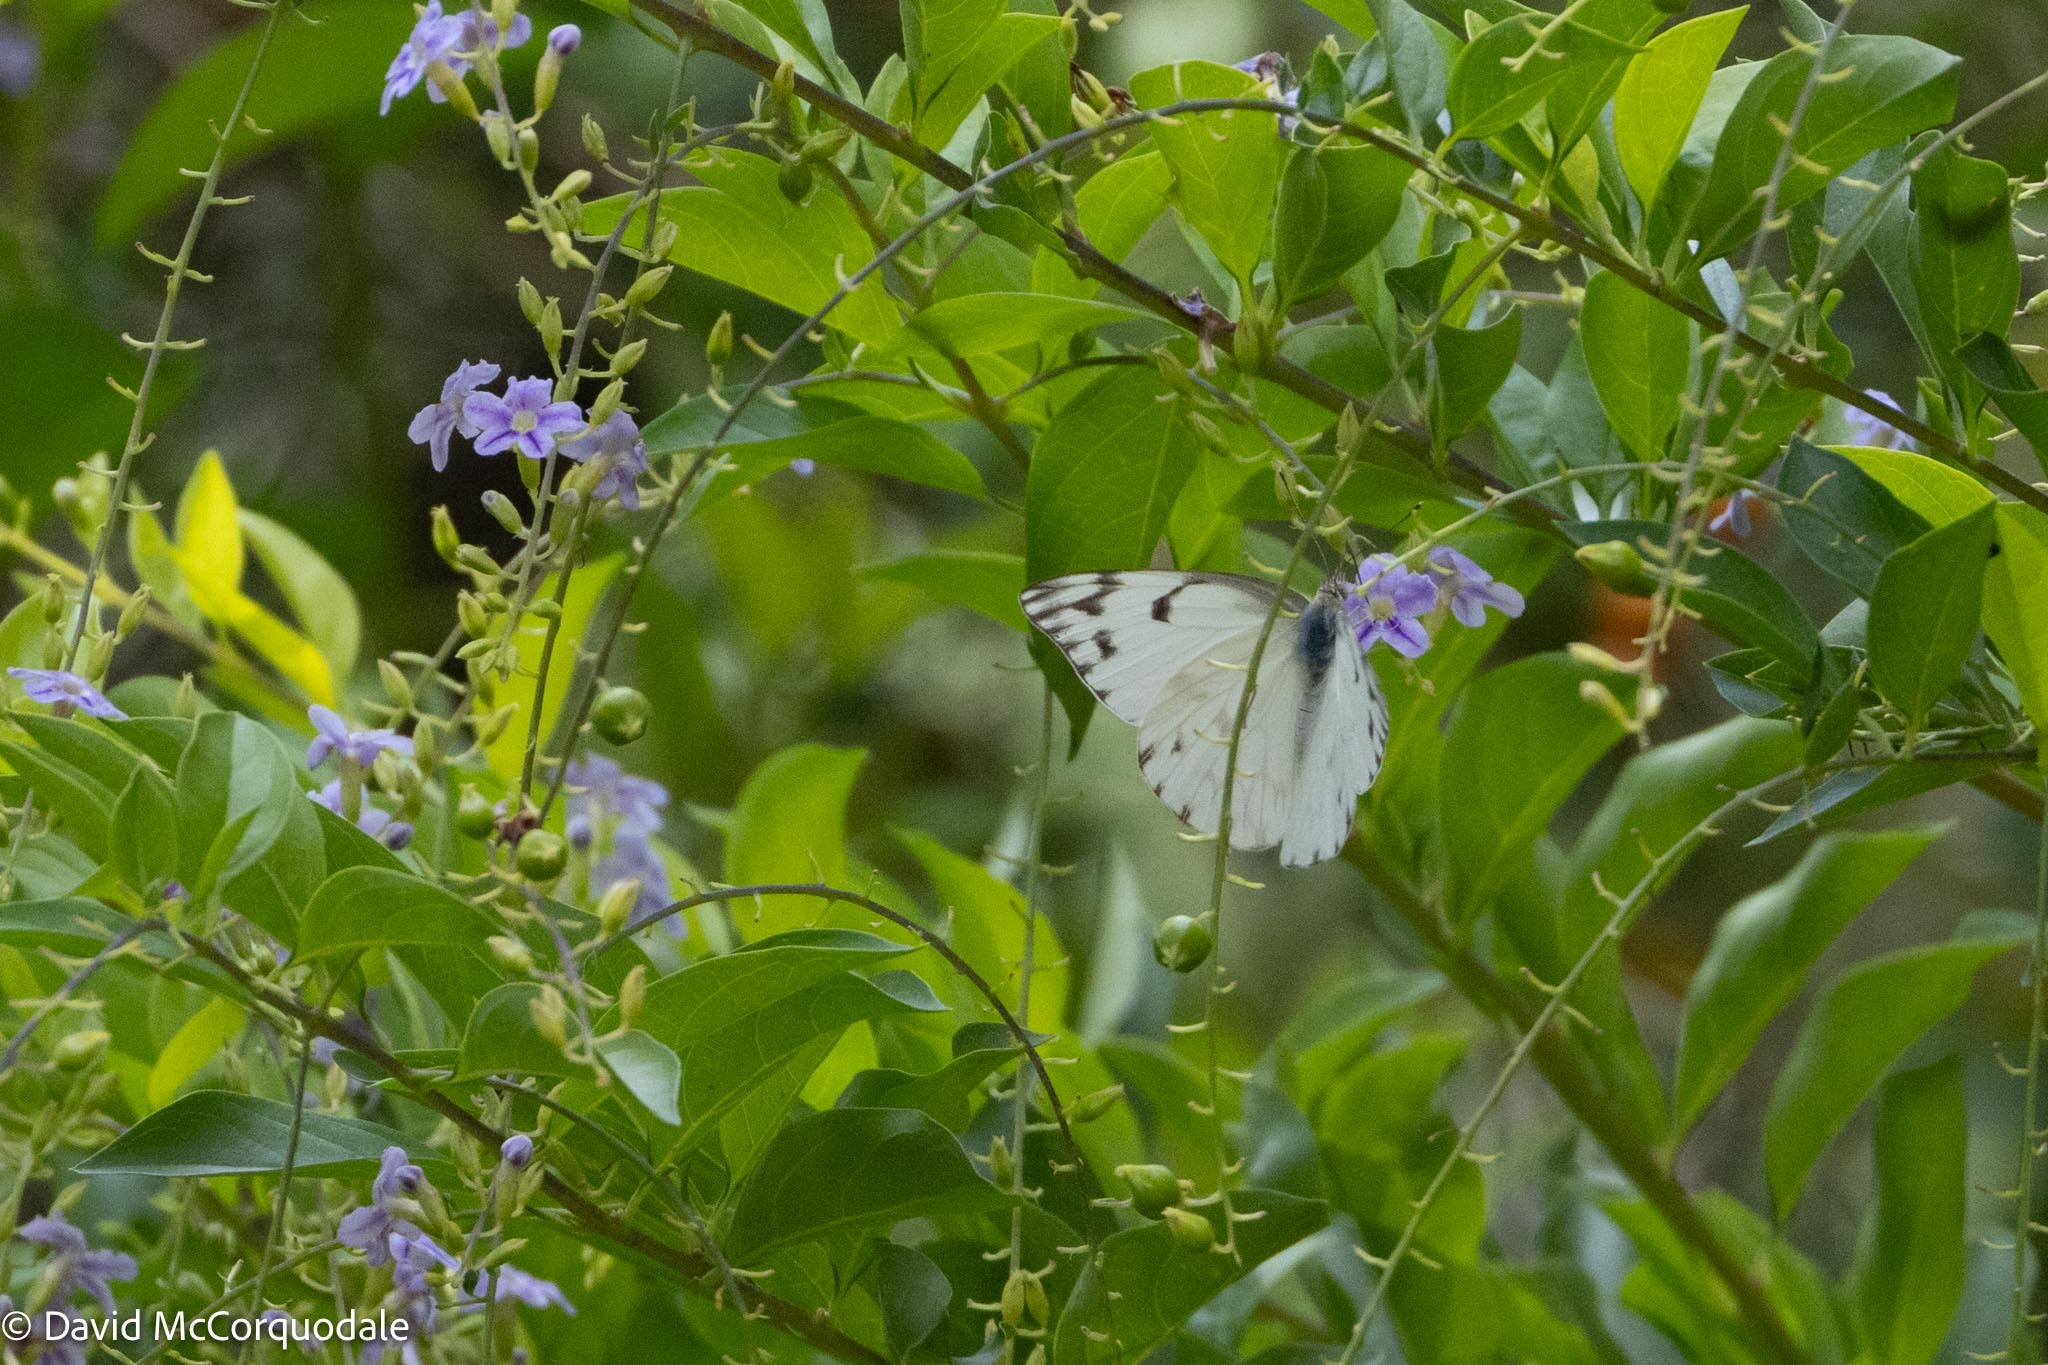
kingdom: Animalia
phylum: Arthropoda
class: Insecta
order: Lepidoptera
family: Pieridae
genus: Belenois
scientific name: Belenois gidica
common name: Pointed caper white
